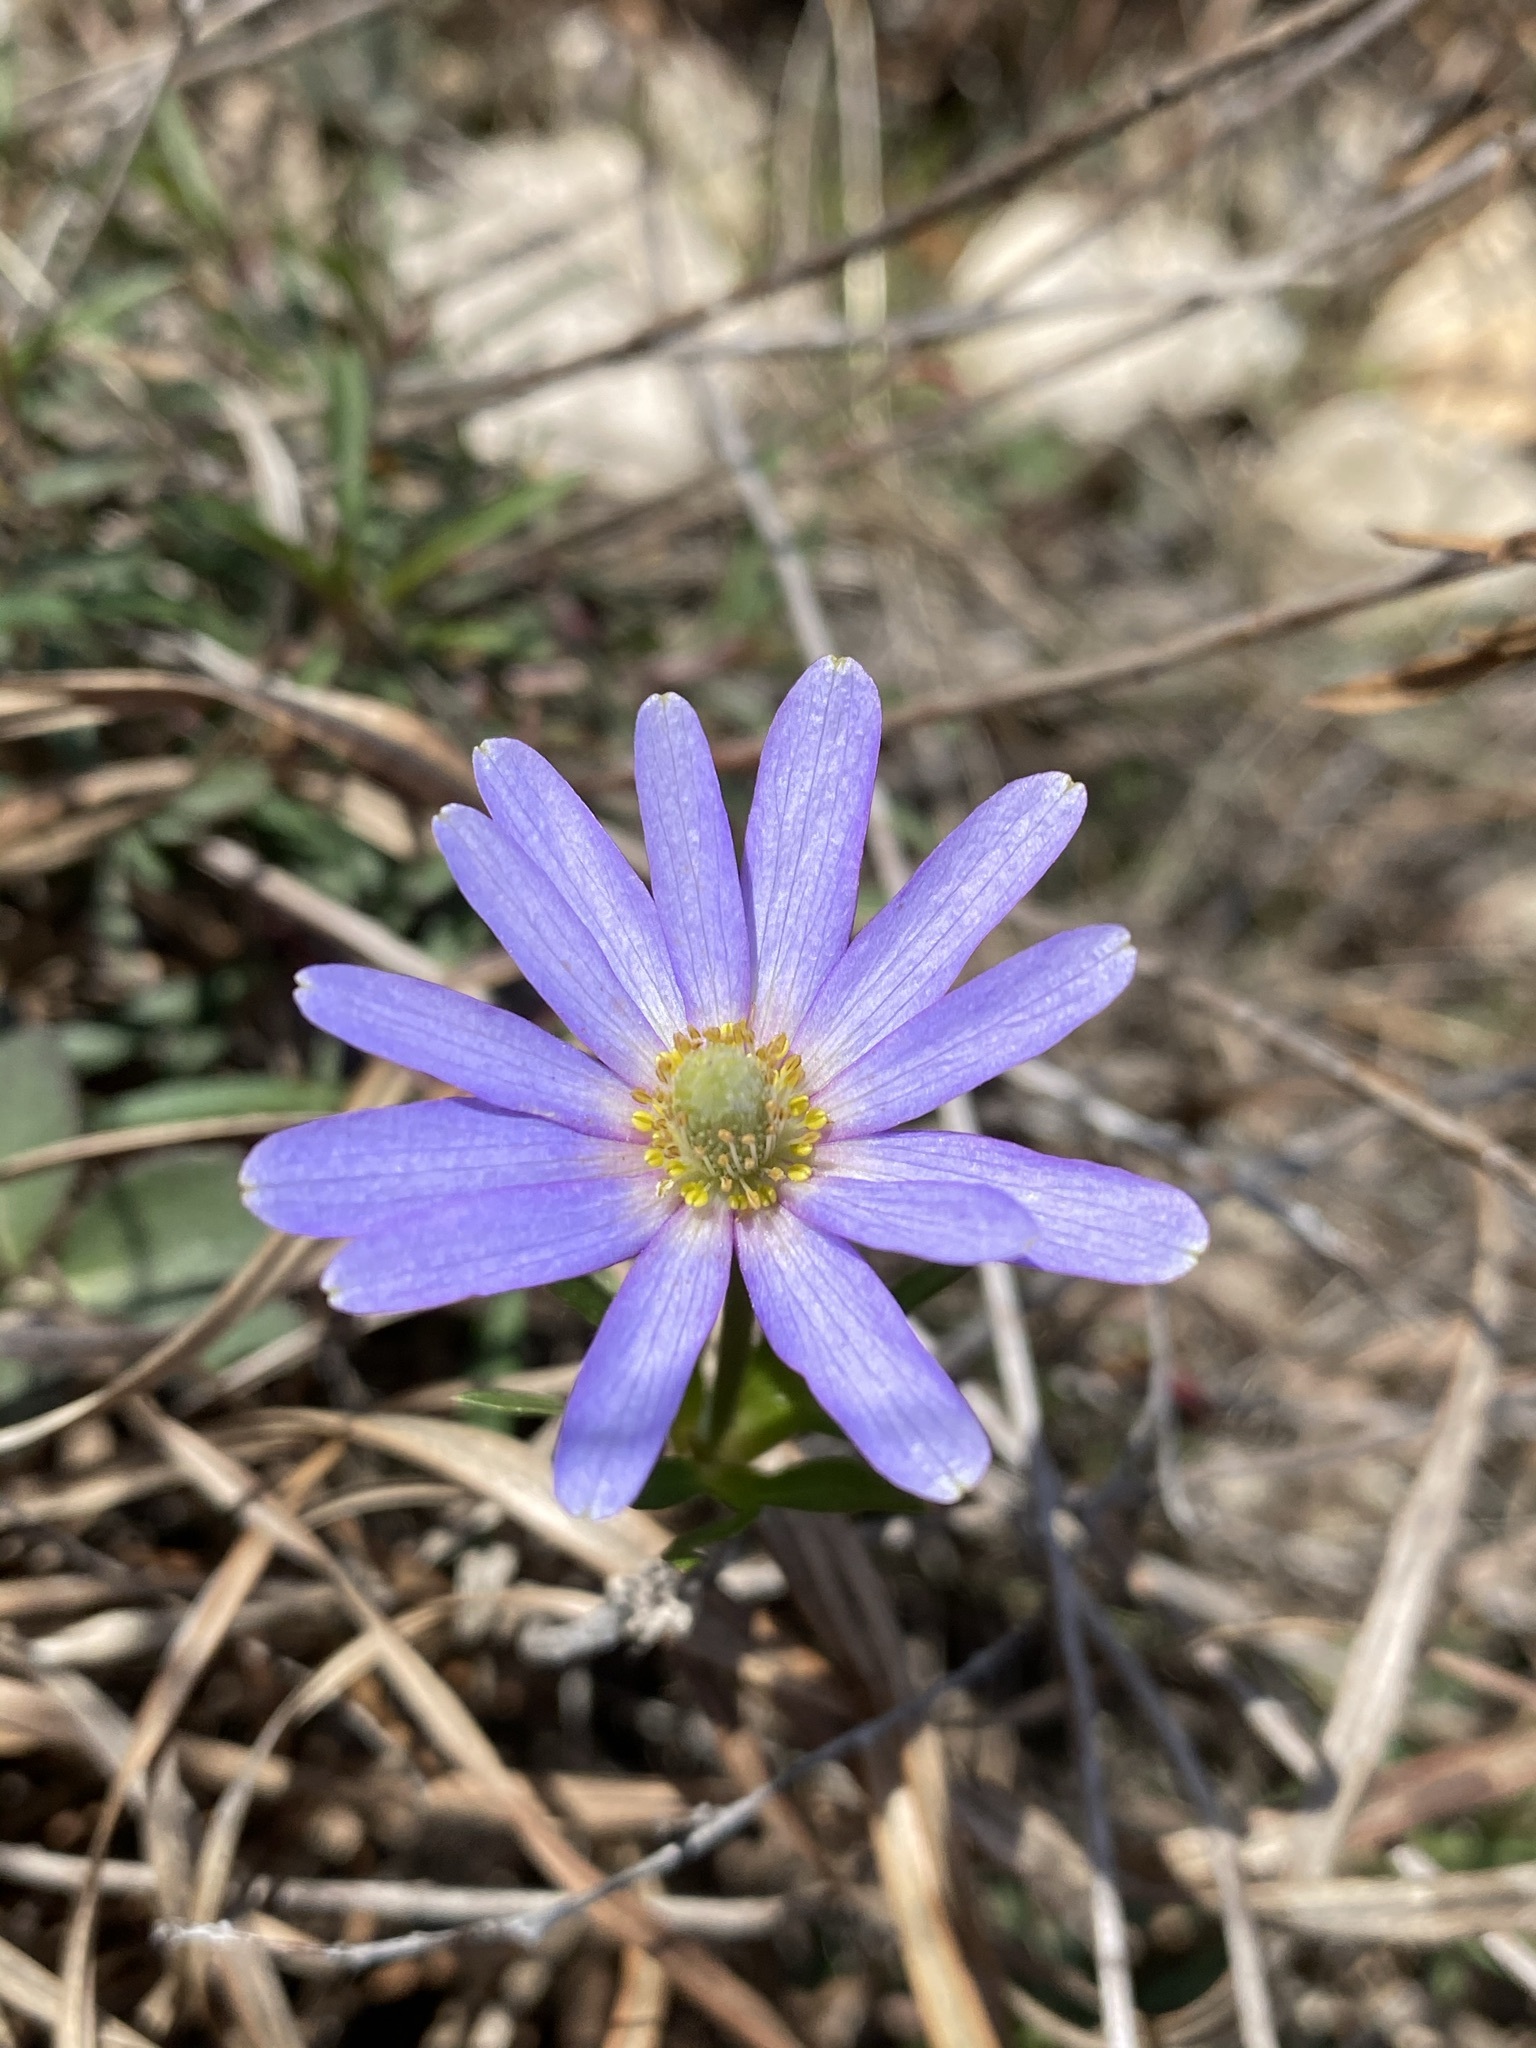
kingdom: Plantae
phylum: Tracheophyta
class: Magnoliopsida
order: Ranunculales
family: Ranunculaceae
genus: Anemone
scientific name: Anemone berlandieri
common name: Ten-petal anemone
